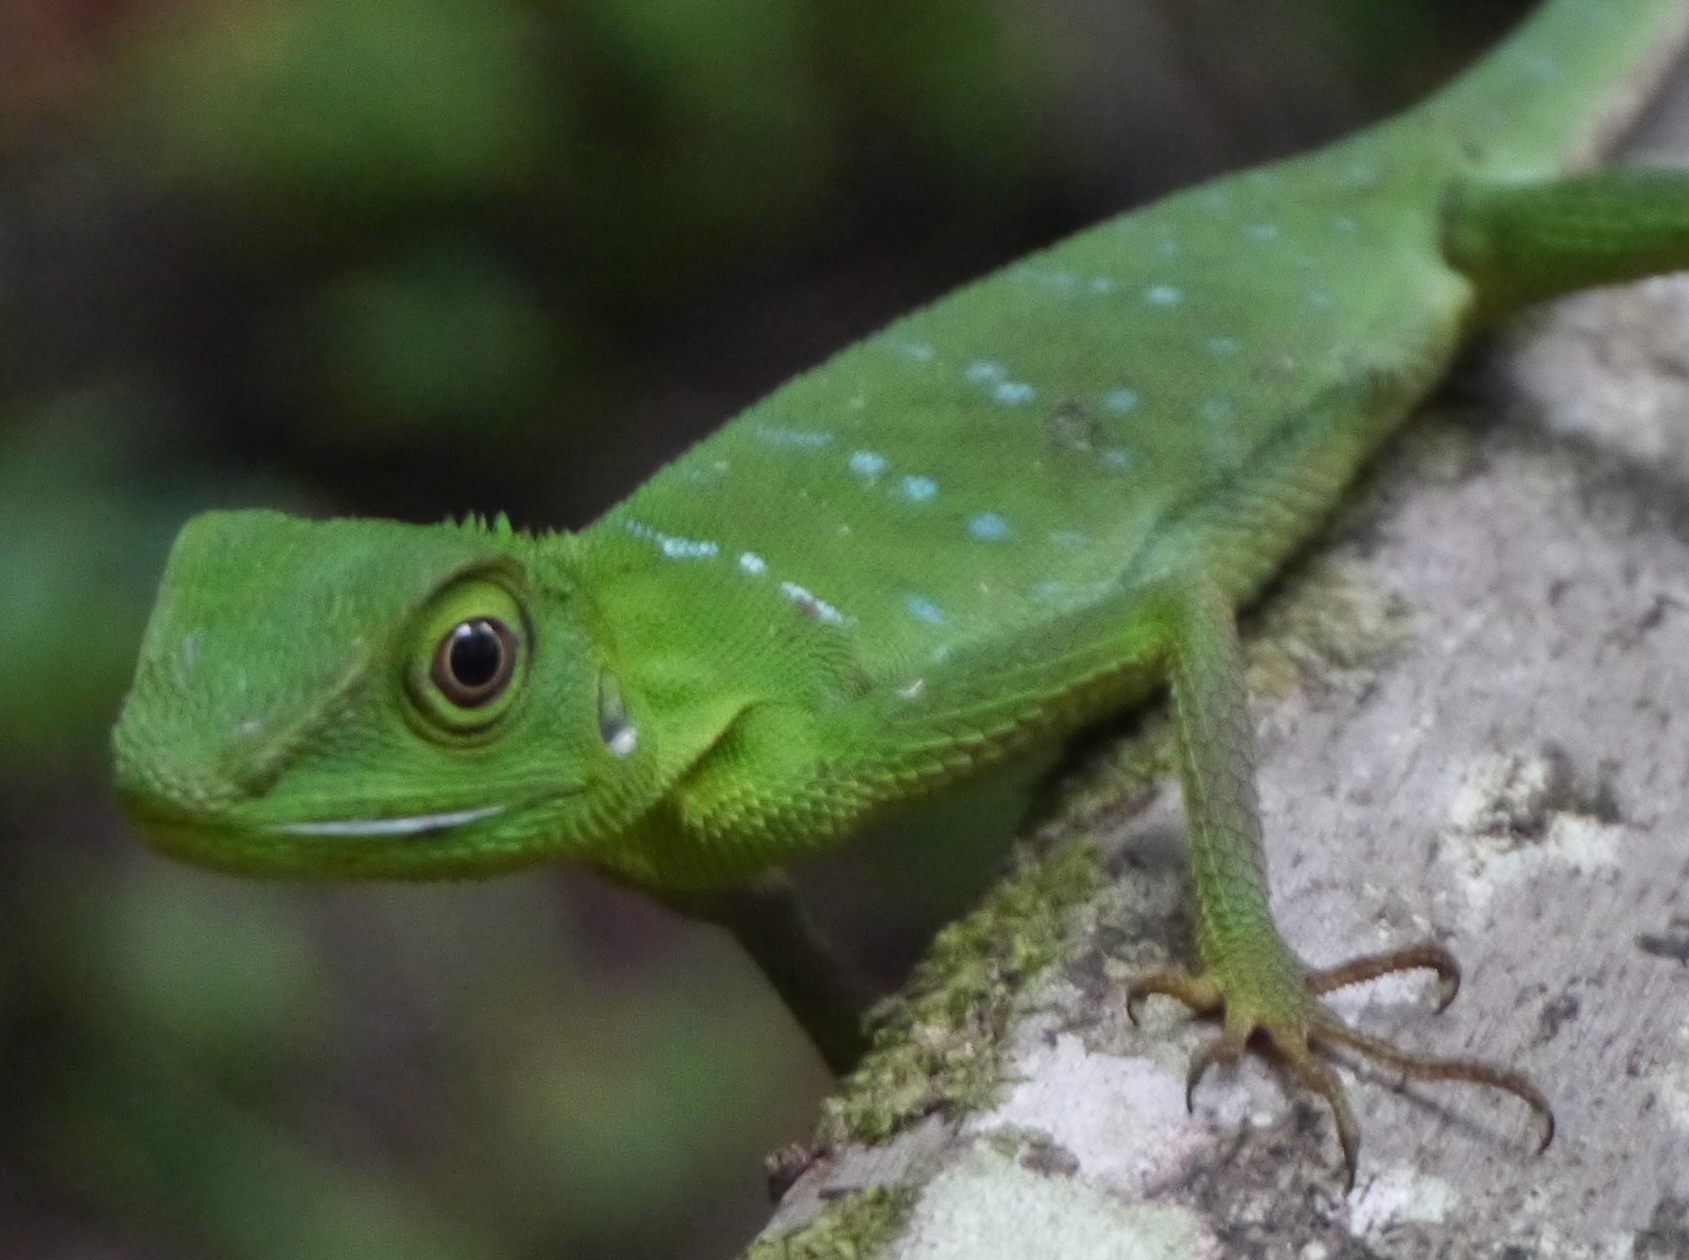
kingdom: Animalia
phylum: Chordata
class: Squamata
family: Agamidae
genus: Bronchocela
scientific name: Bronchocela cristatella
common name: Green crested lizard
